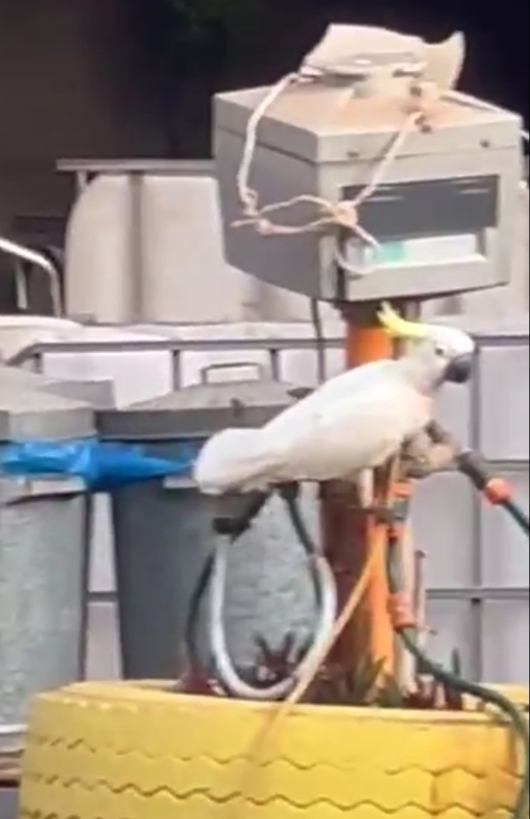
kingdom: Animalia
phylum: Chordata
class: Aves
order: Psittaciformes
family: Psittacidae
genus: Cacatua
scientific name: Cacatua galerita
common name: Sulphur-crested cockatoo
